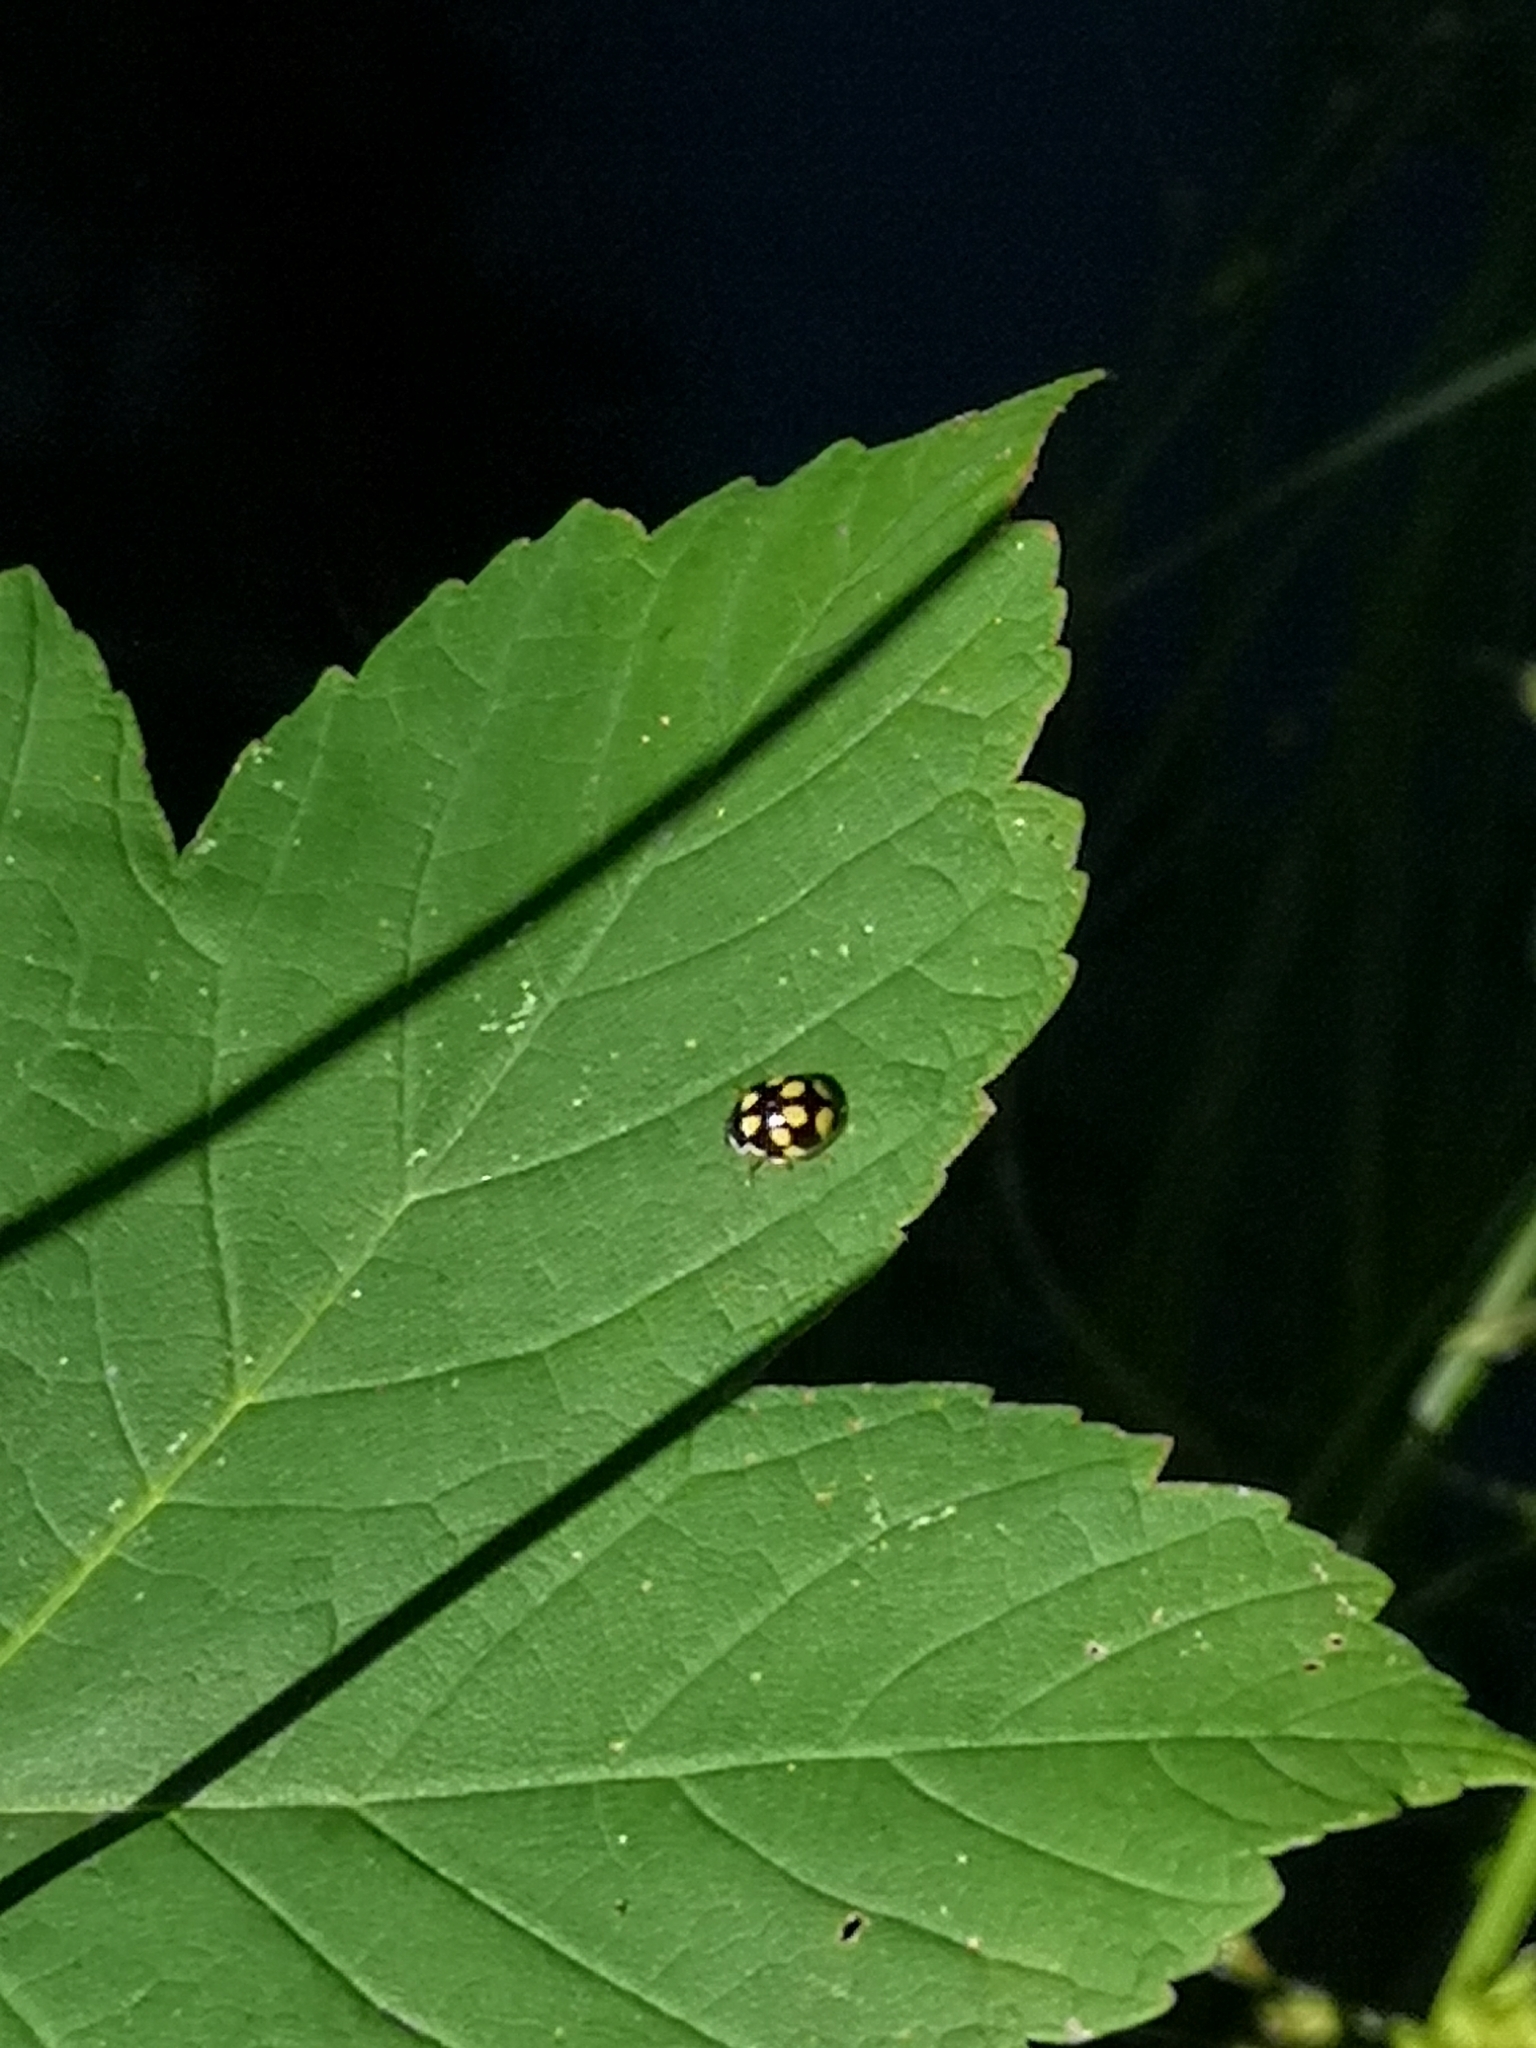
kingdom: Animalia
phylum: Arthropoda
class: Insecta
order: Coleoptera
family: Coccinellidae
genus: Propylaea
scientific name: Propylaea quatuordecimpunctata
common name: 14-spotted ladybird beetle
